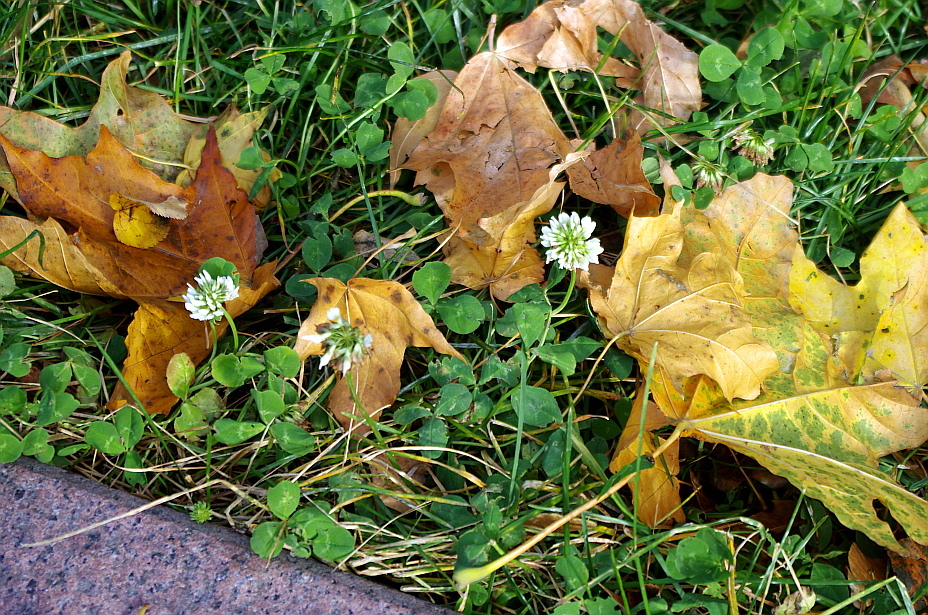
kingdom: Plantae
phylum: Tracheophyta
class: Magnoliopsida
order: Fabales
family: Fabaceae
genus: Trifolium
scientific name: Trifolium repens
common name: White clover
